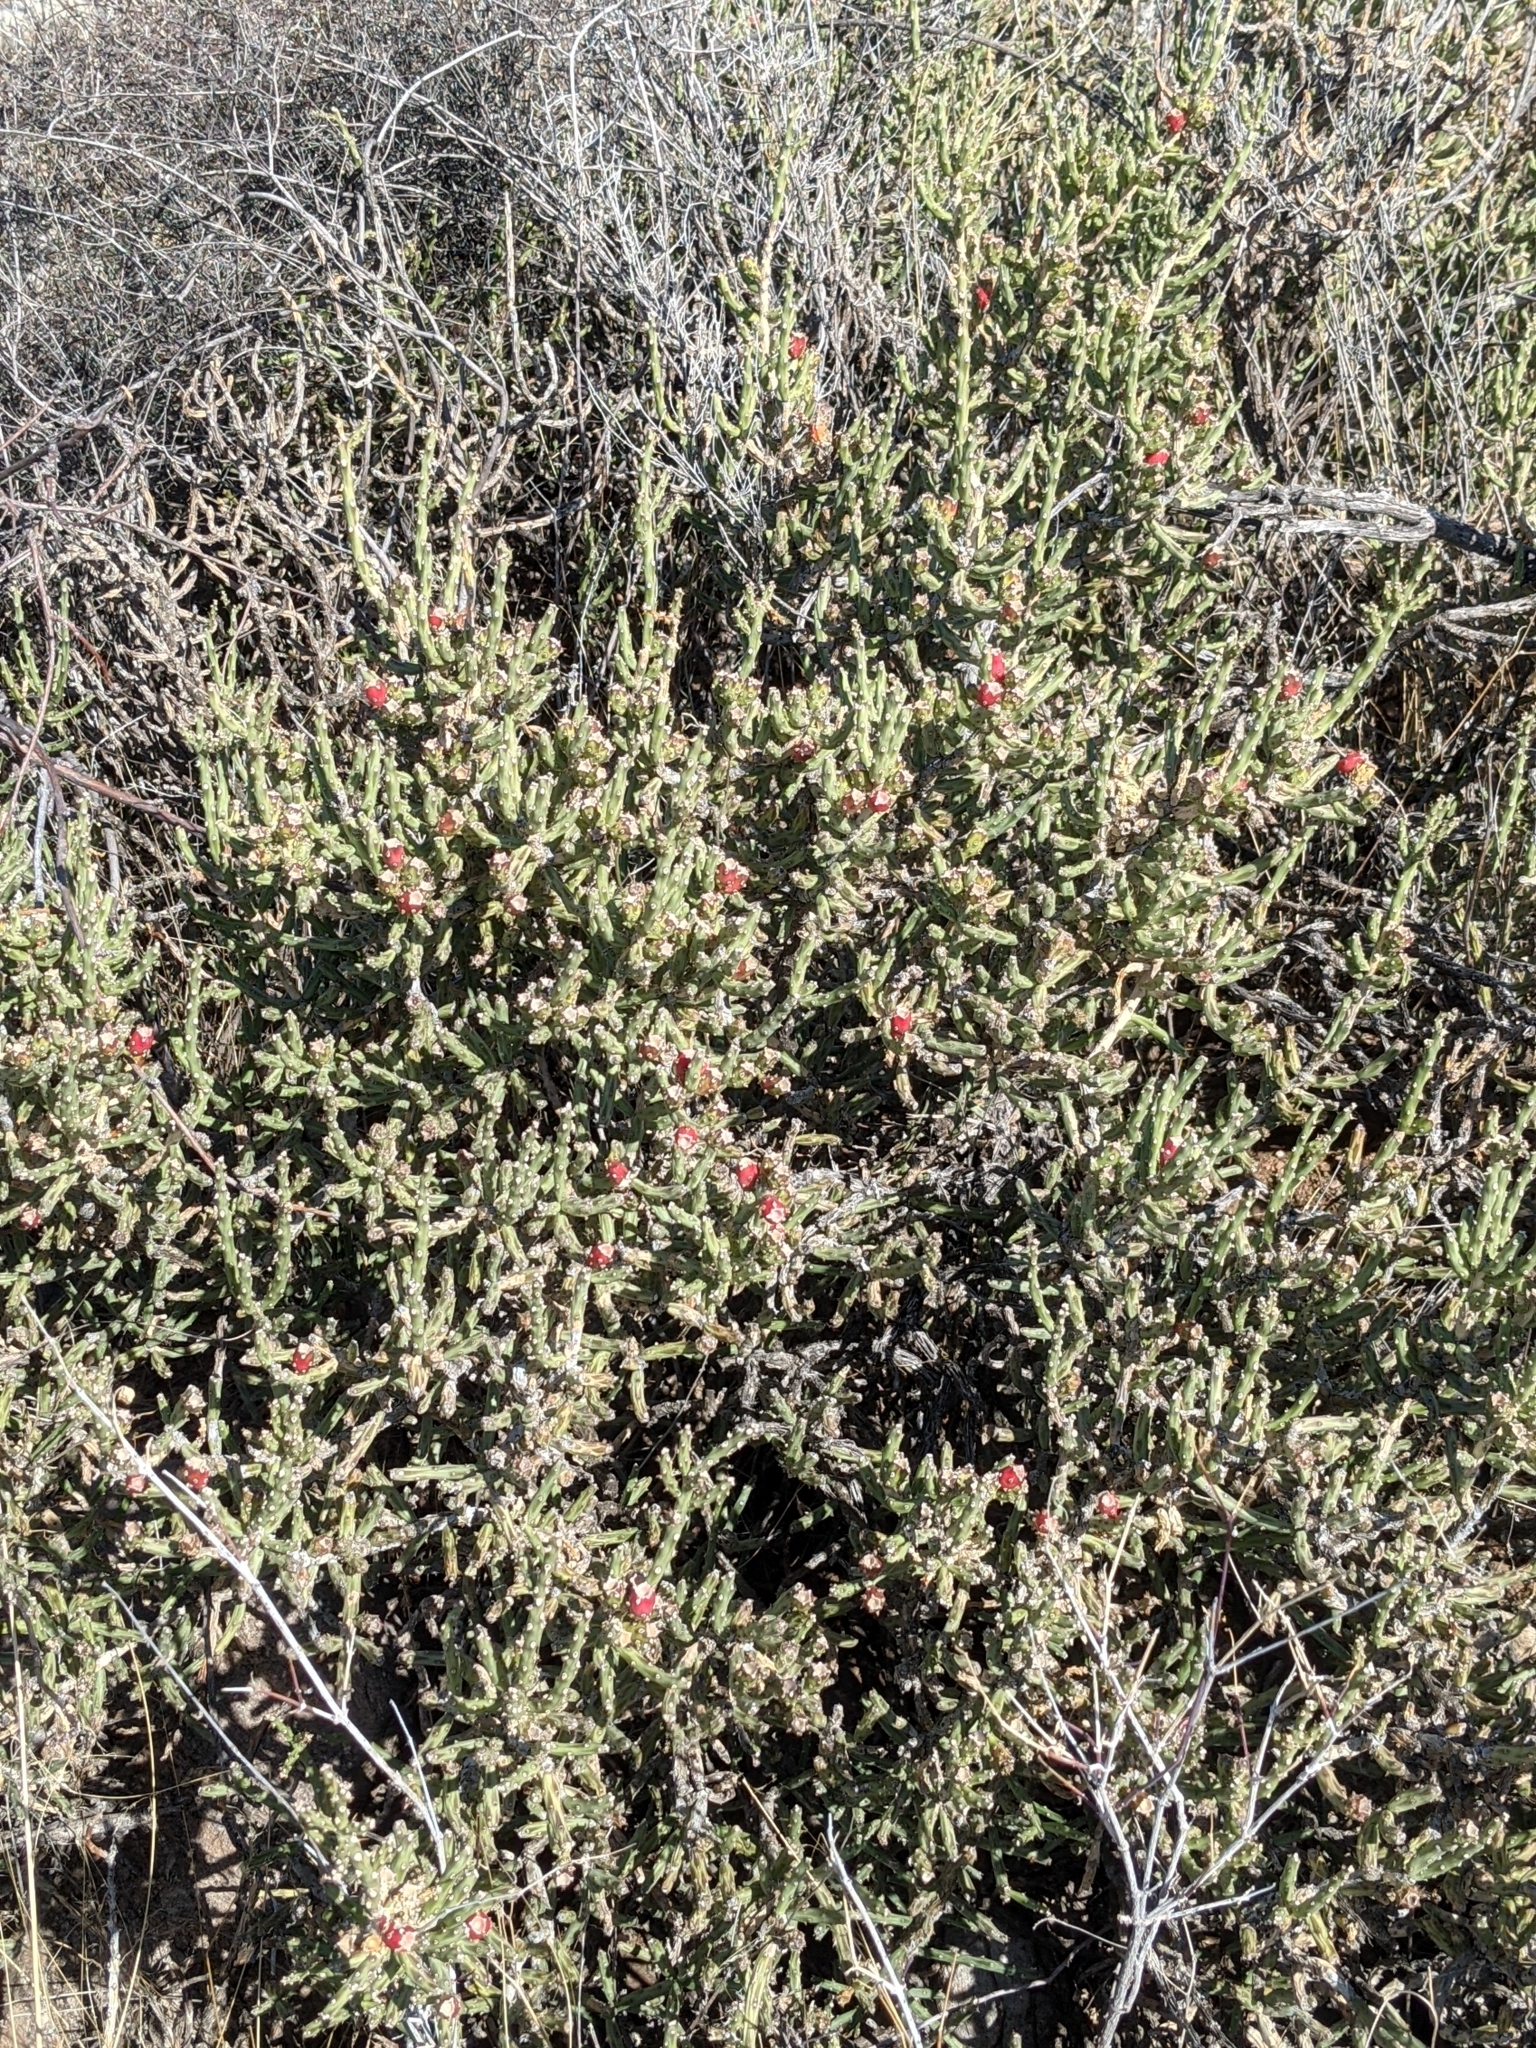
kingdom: Plantae
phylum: Tracheophyta
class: Magnoliopsida
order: Caryophyllales
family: Cactaceae
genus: Cylindropuntia
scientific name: Cylindropuntia leptocaulis
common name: Christmas cactus
